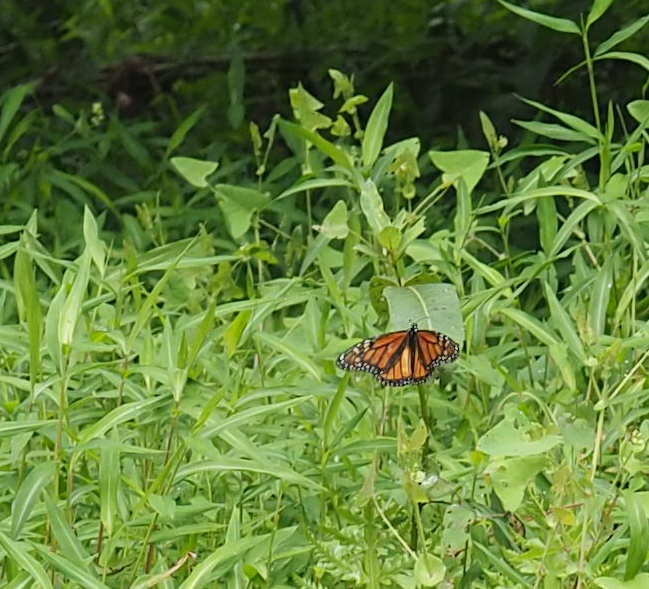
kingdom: Animalia
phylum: Arthropoda
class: Insecta
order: Lepidoptera
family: Nymphalidae
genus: Danaus
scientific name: Danaus plexippus
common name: Monarch
